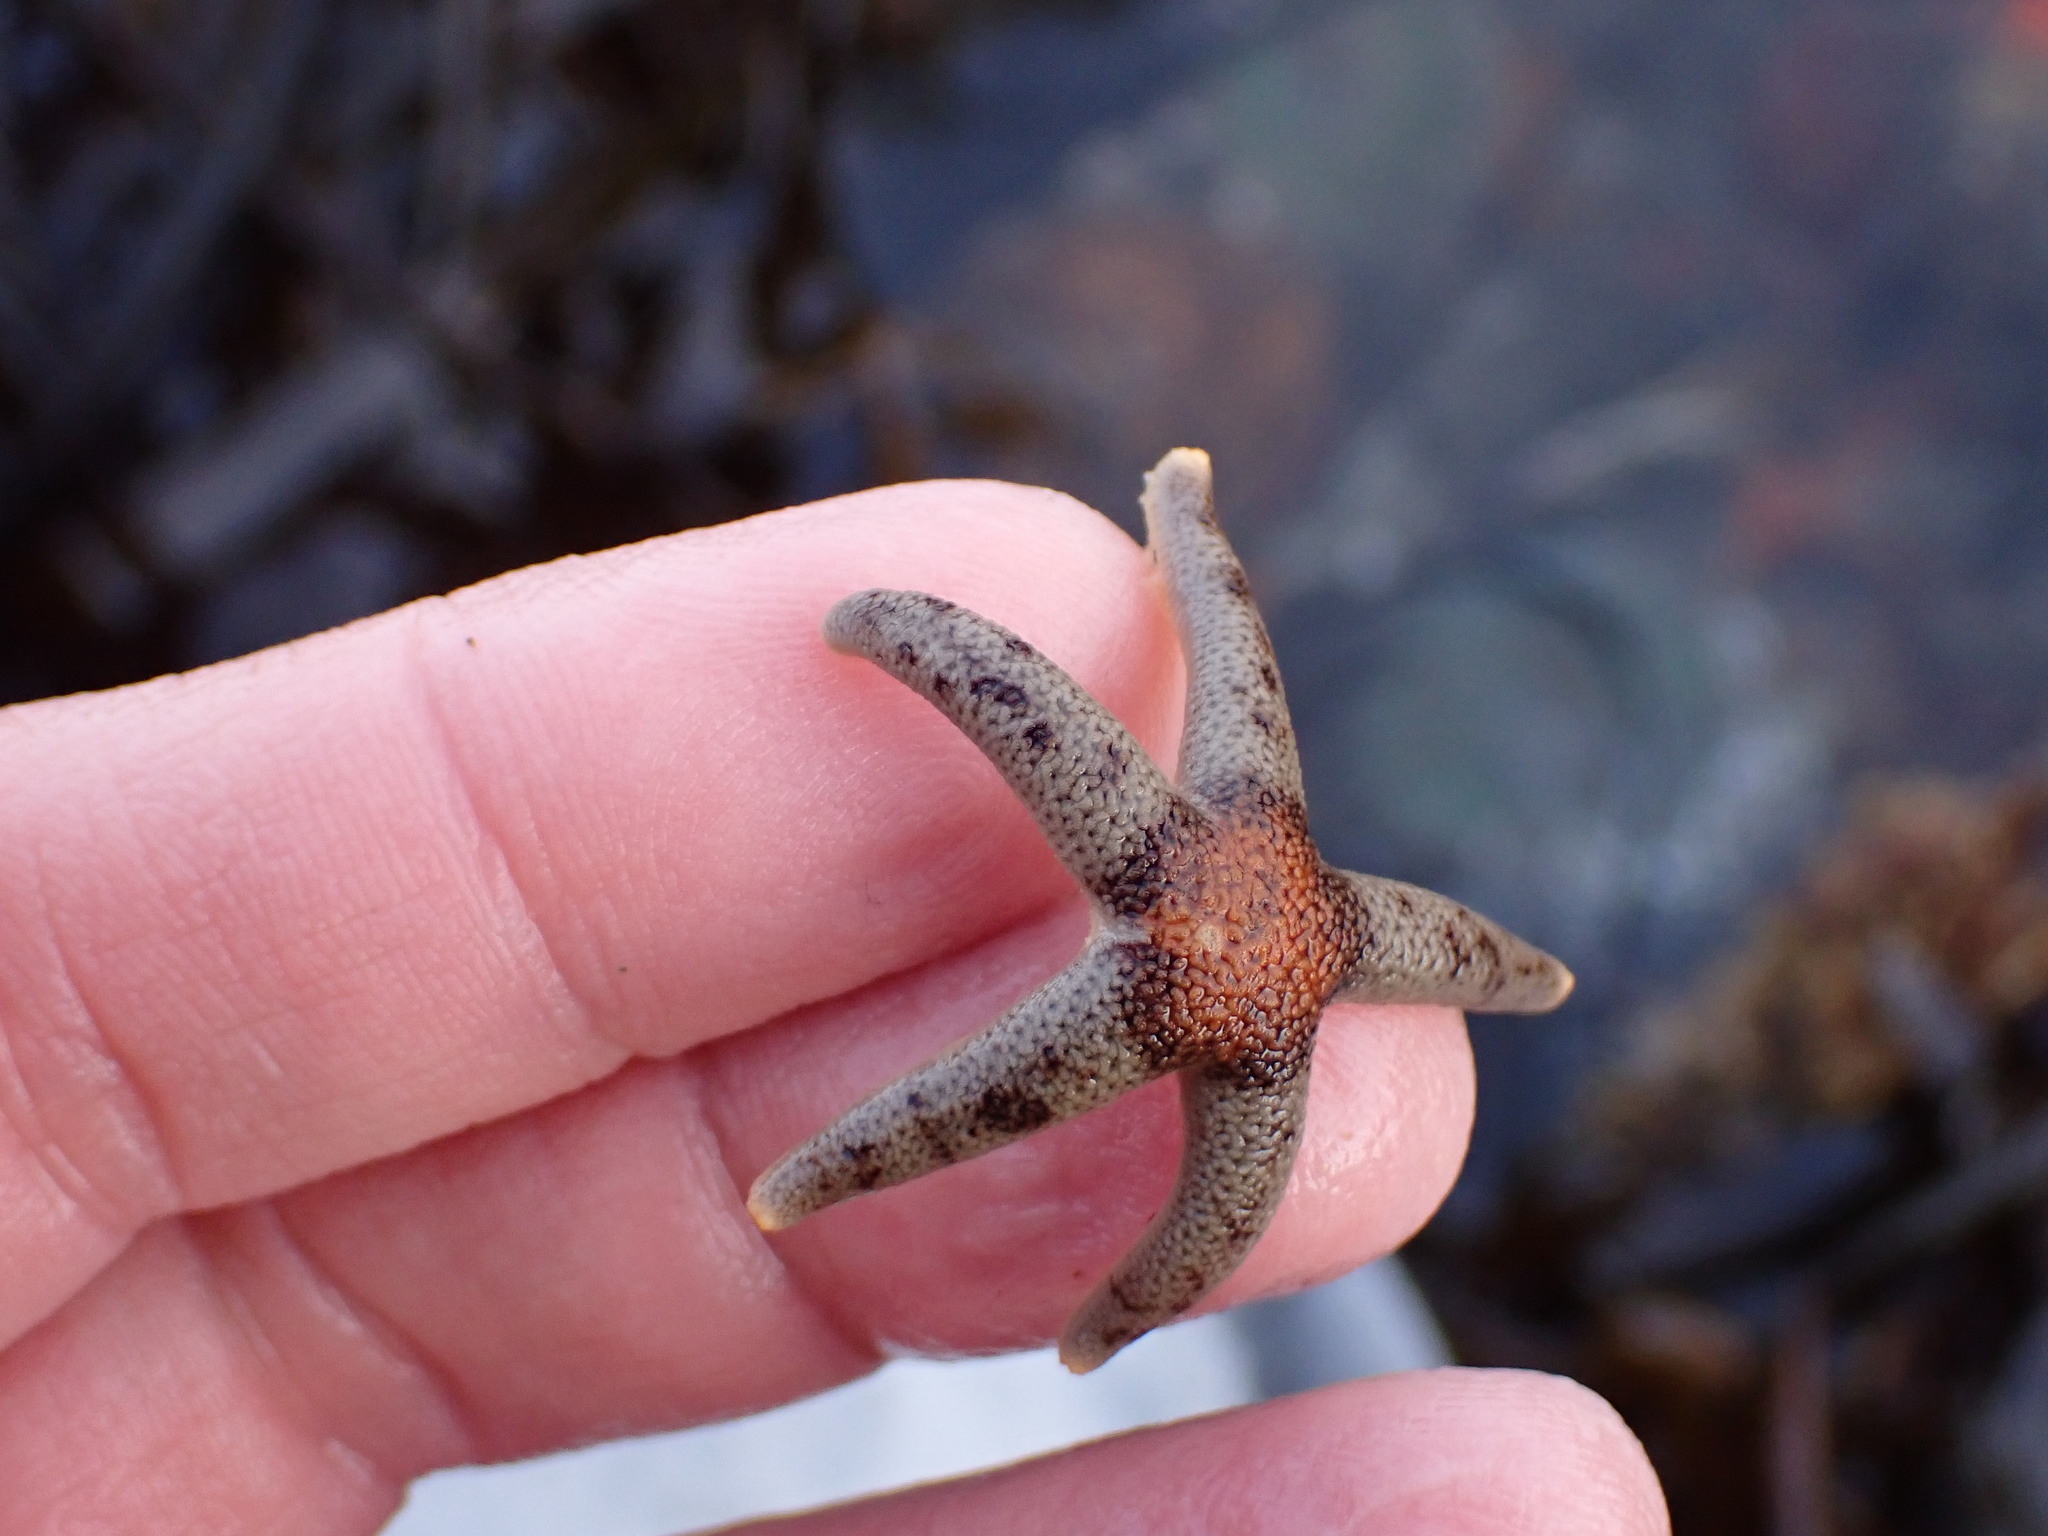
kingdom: Animalia
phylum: Echinodermata
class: Asteroidea
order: Spinulosida
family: Echinasteridae
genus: Henricia
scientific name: Henricia pumila
